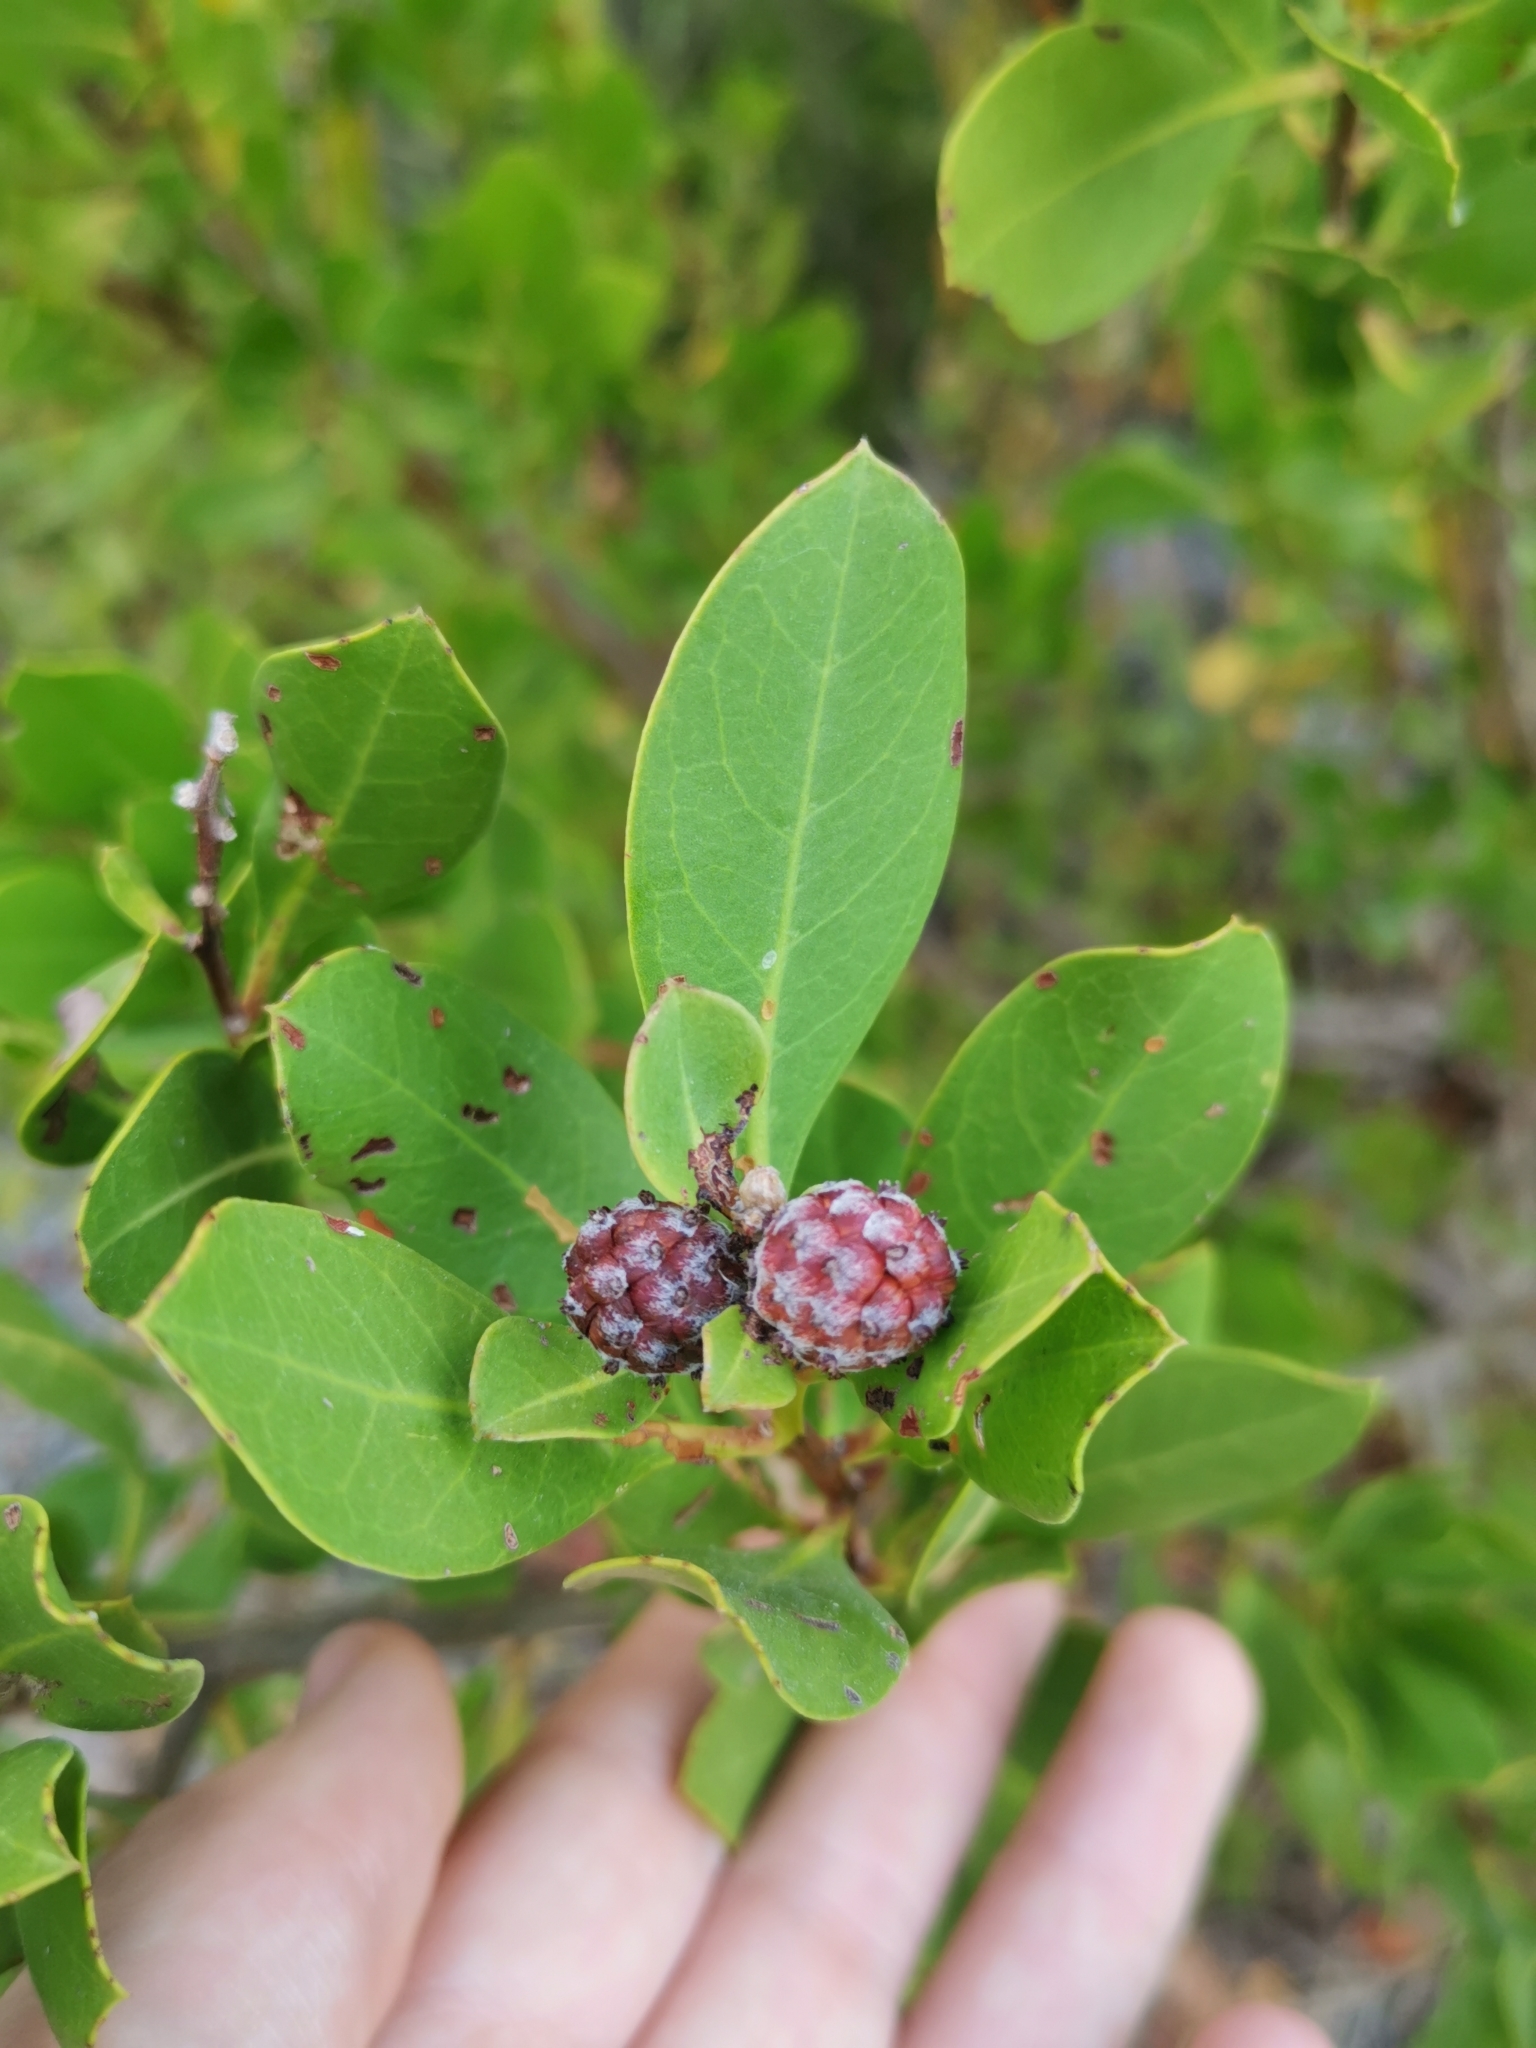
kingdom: Plantae
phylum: Tracheophyta
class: Magnoliopsida
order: Myrtales
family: Combretaceae
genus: Conocarpus
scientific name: Conocarpus erectus
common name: Button mangrove
